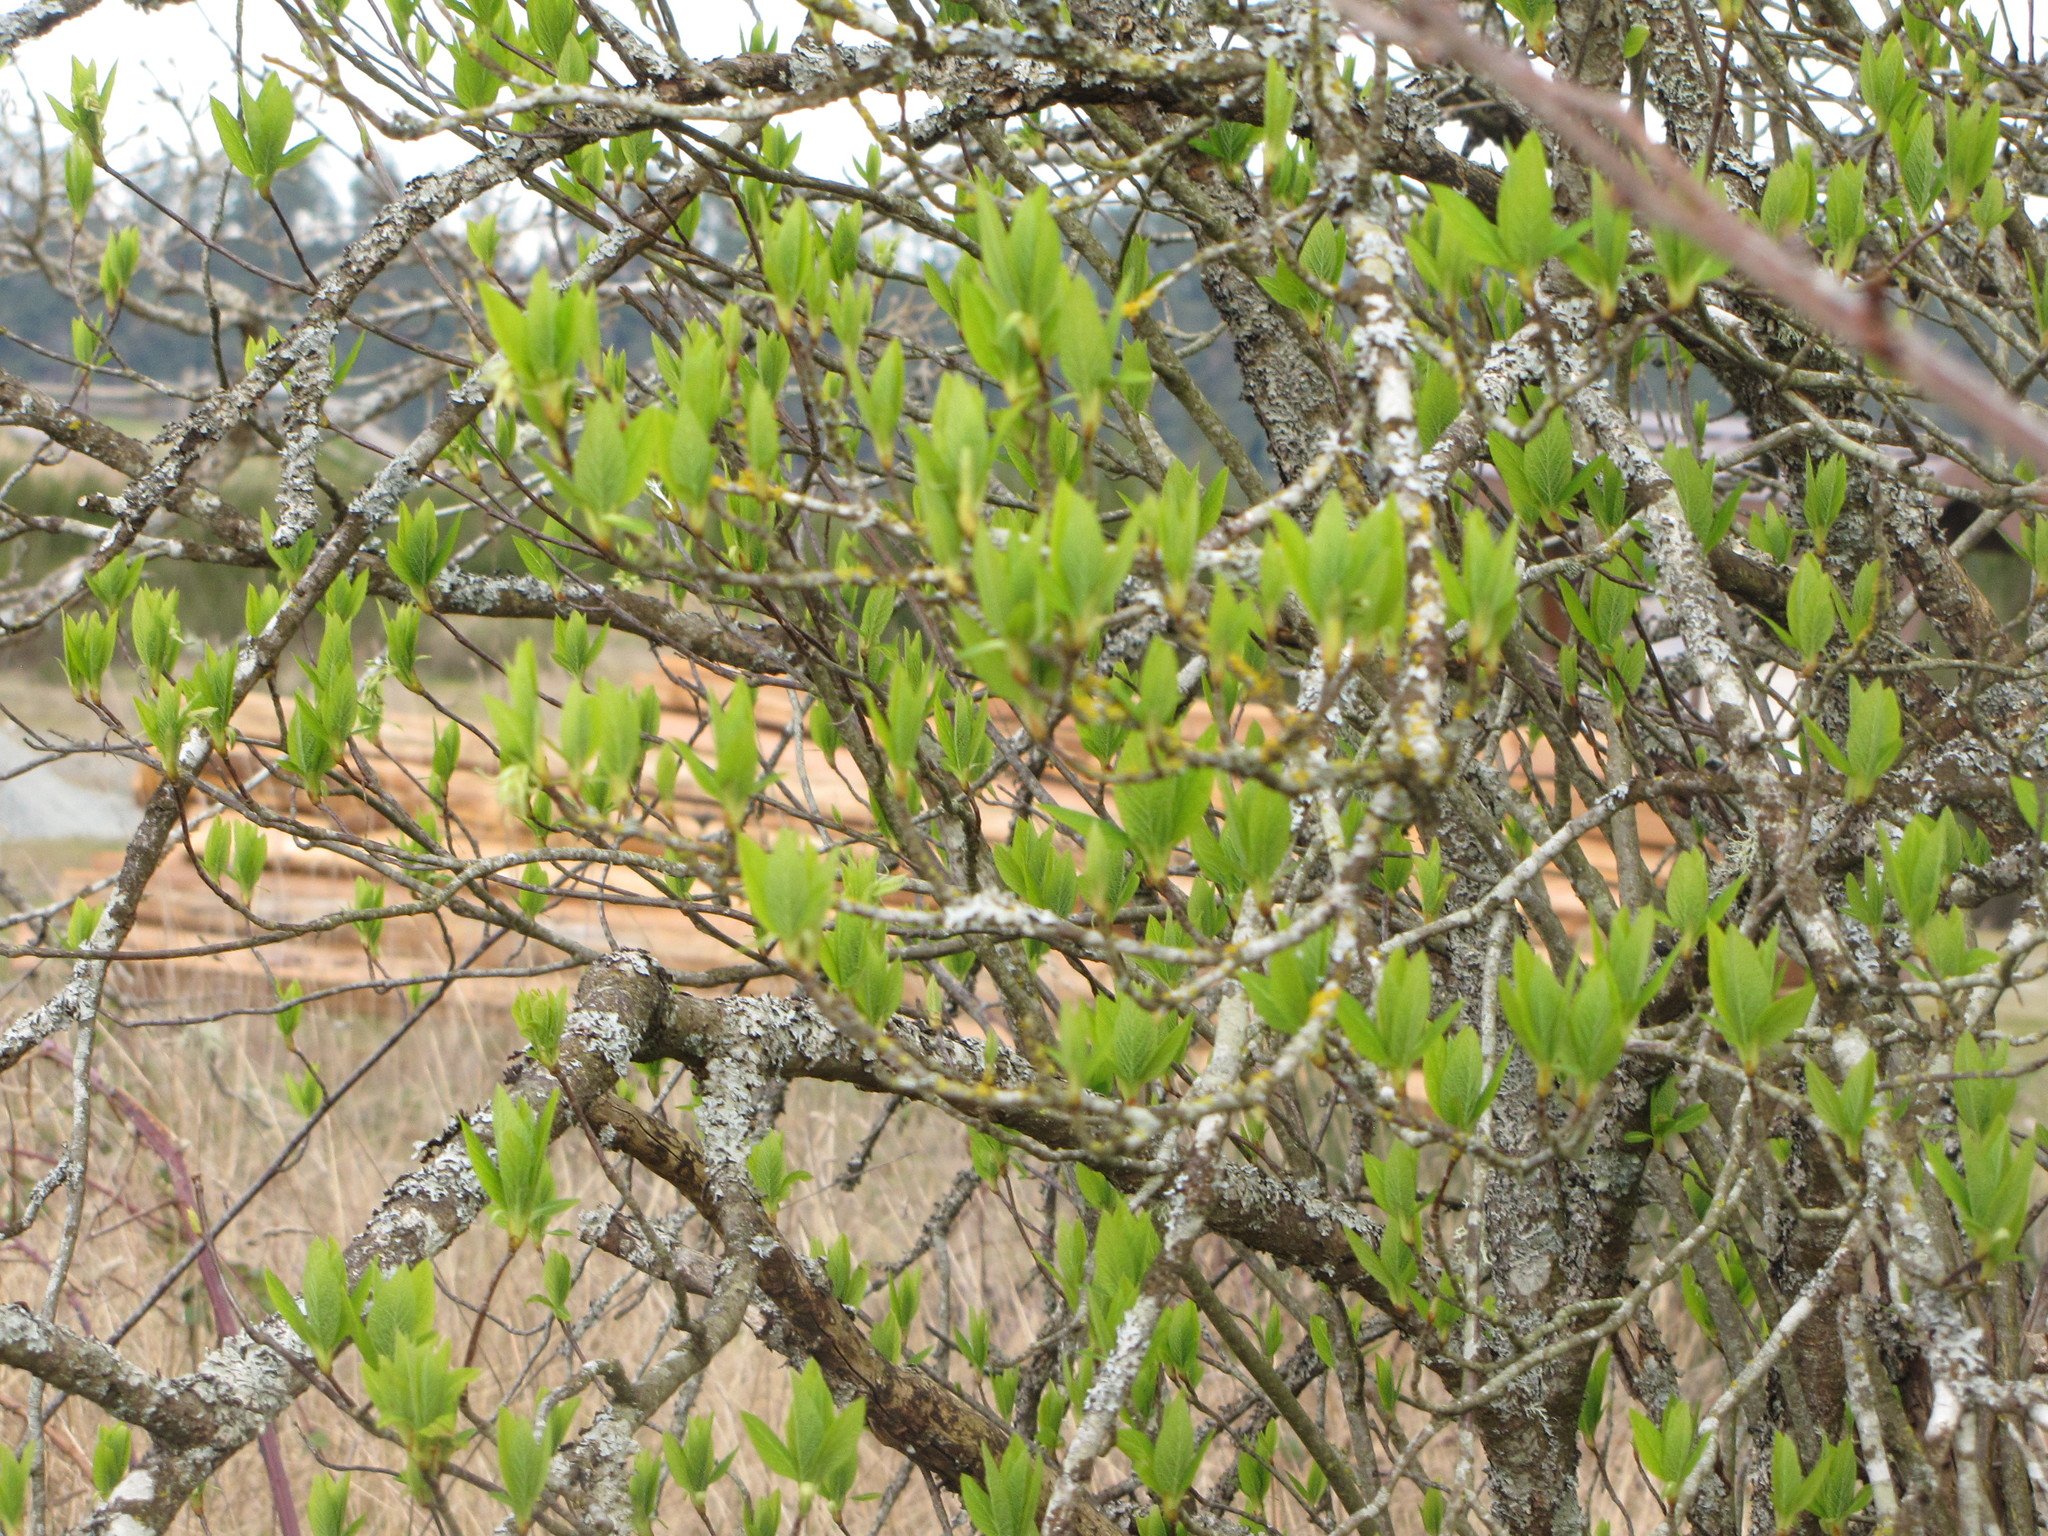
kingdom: Plantae
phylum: Tracheophyta
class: Magnoliopsida
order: Rosales
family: Rosaceae
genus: Oemleria
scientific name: Oemleria cerasiformis
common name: Osoberry
